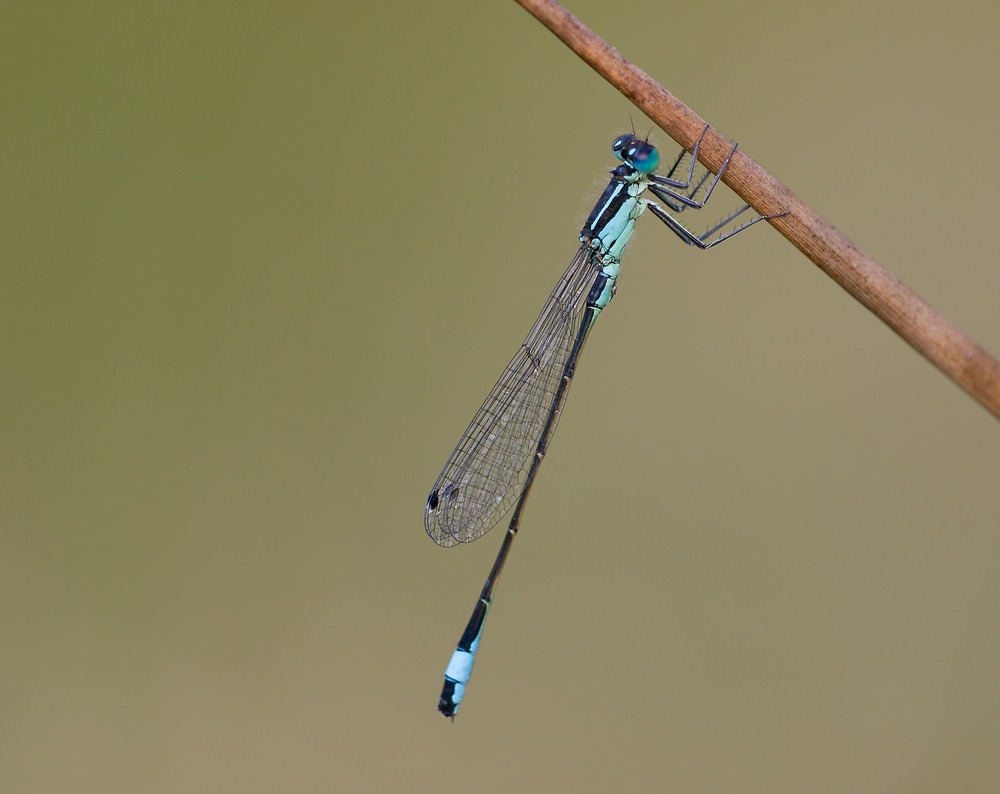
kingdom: Animalia
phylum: Arthropoda
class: Insecta
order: Odonata
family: Coenagrionidae
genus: Ischnura
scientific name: Ischnura elegans
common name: Blue-tailed damselfly
